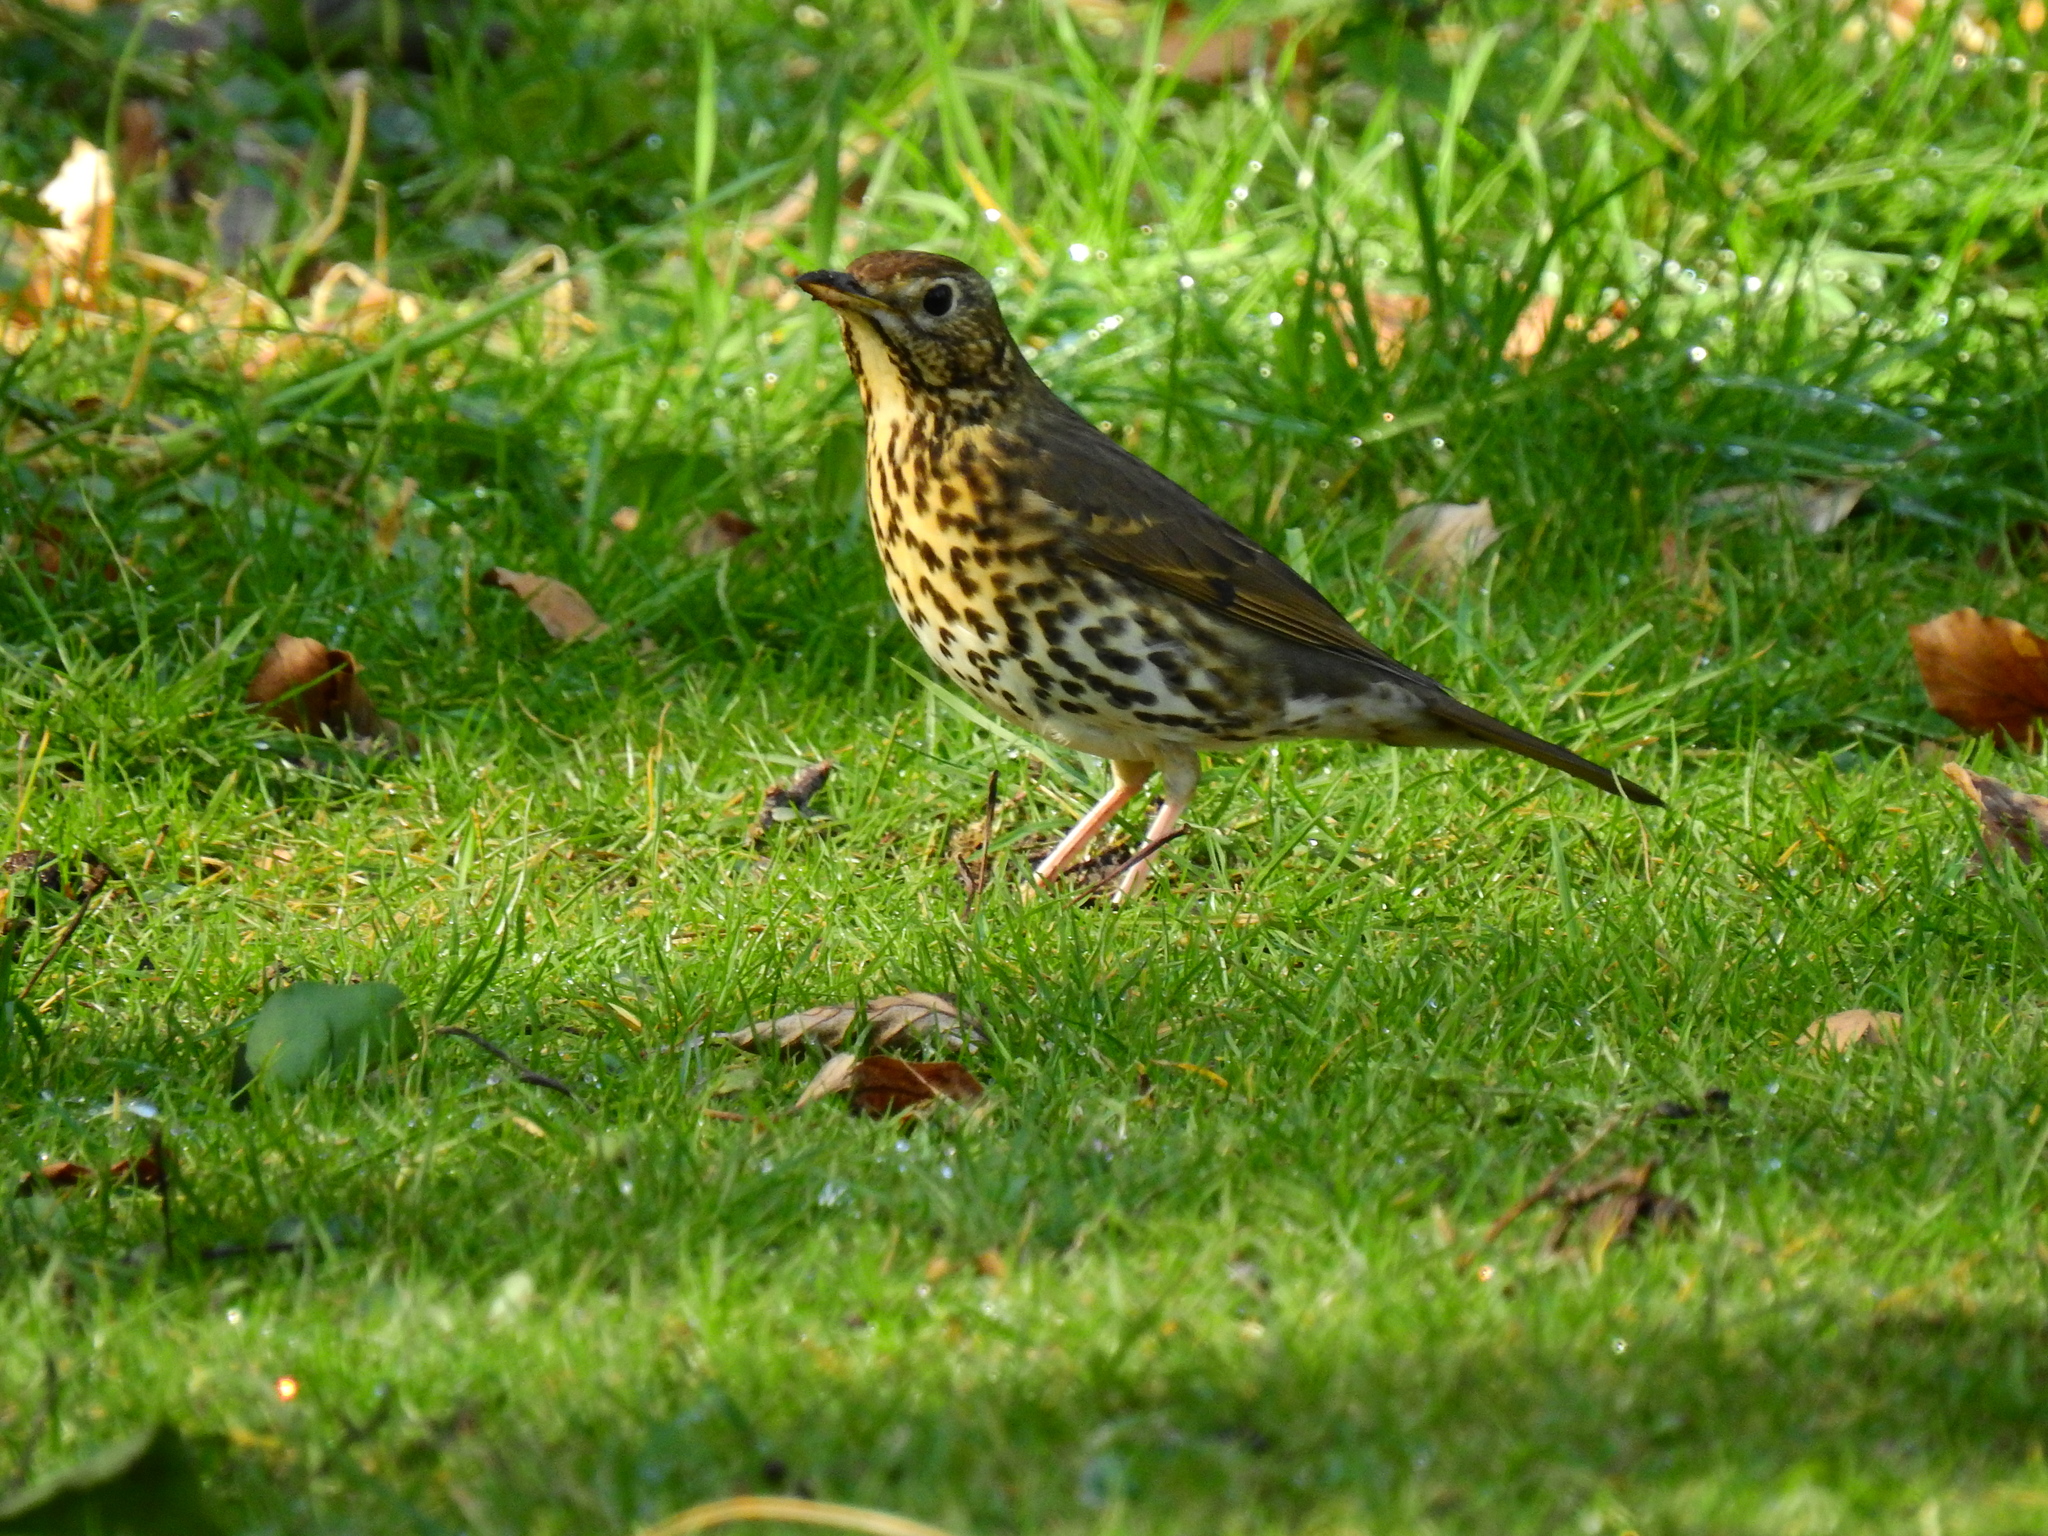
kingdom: Animalia
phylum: Chordata
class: Aves
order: Passeriformes
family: Turdidae
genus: Turdus
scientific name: Turdus philomelos
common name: Song thrush
